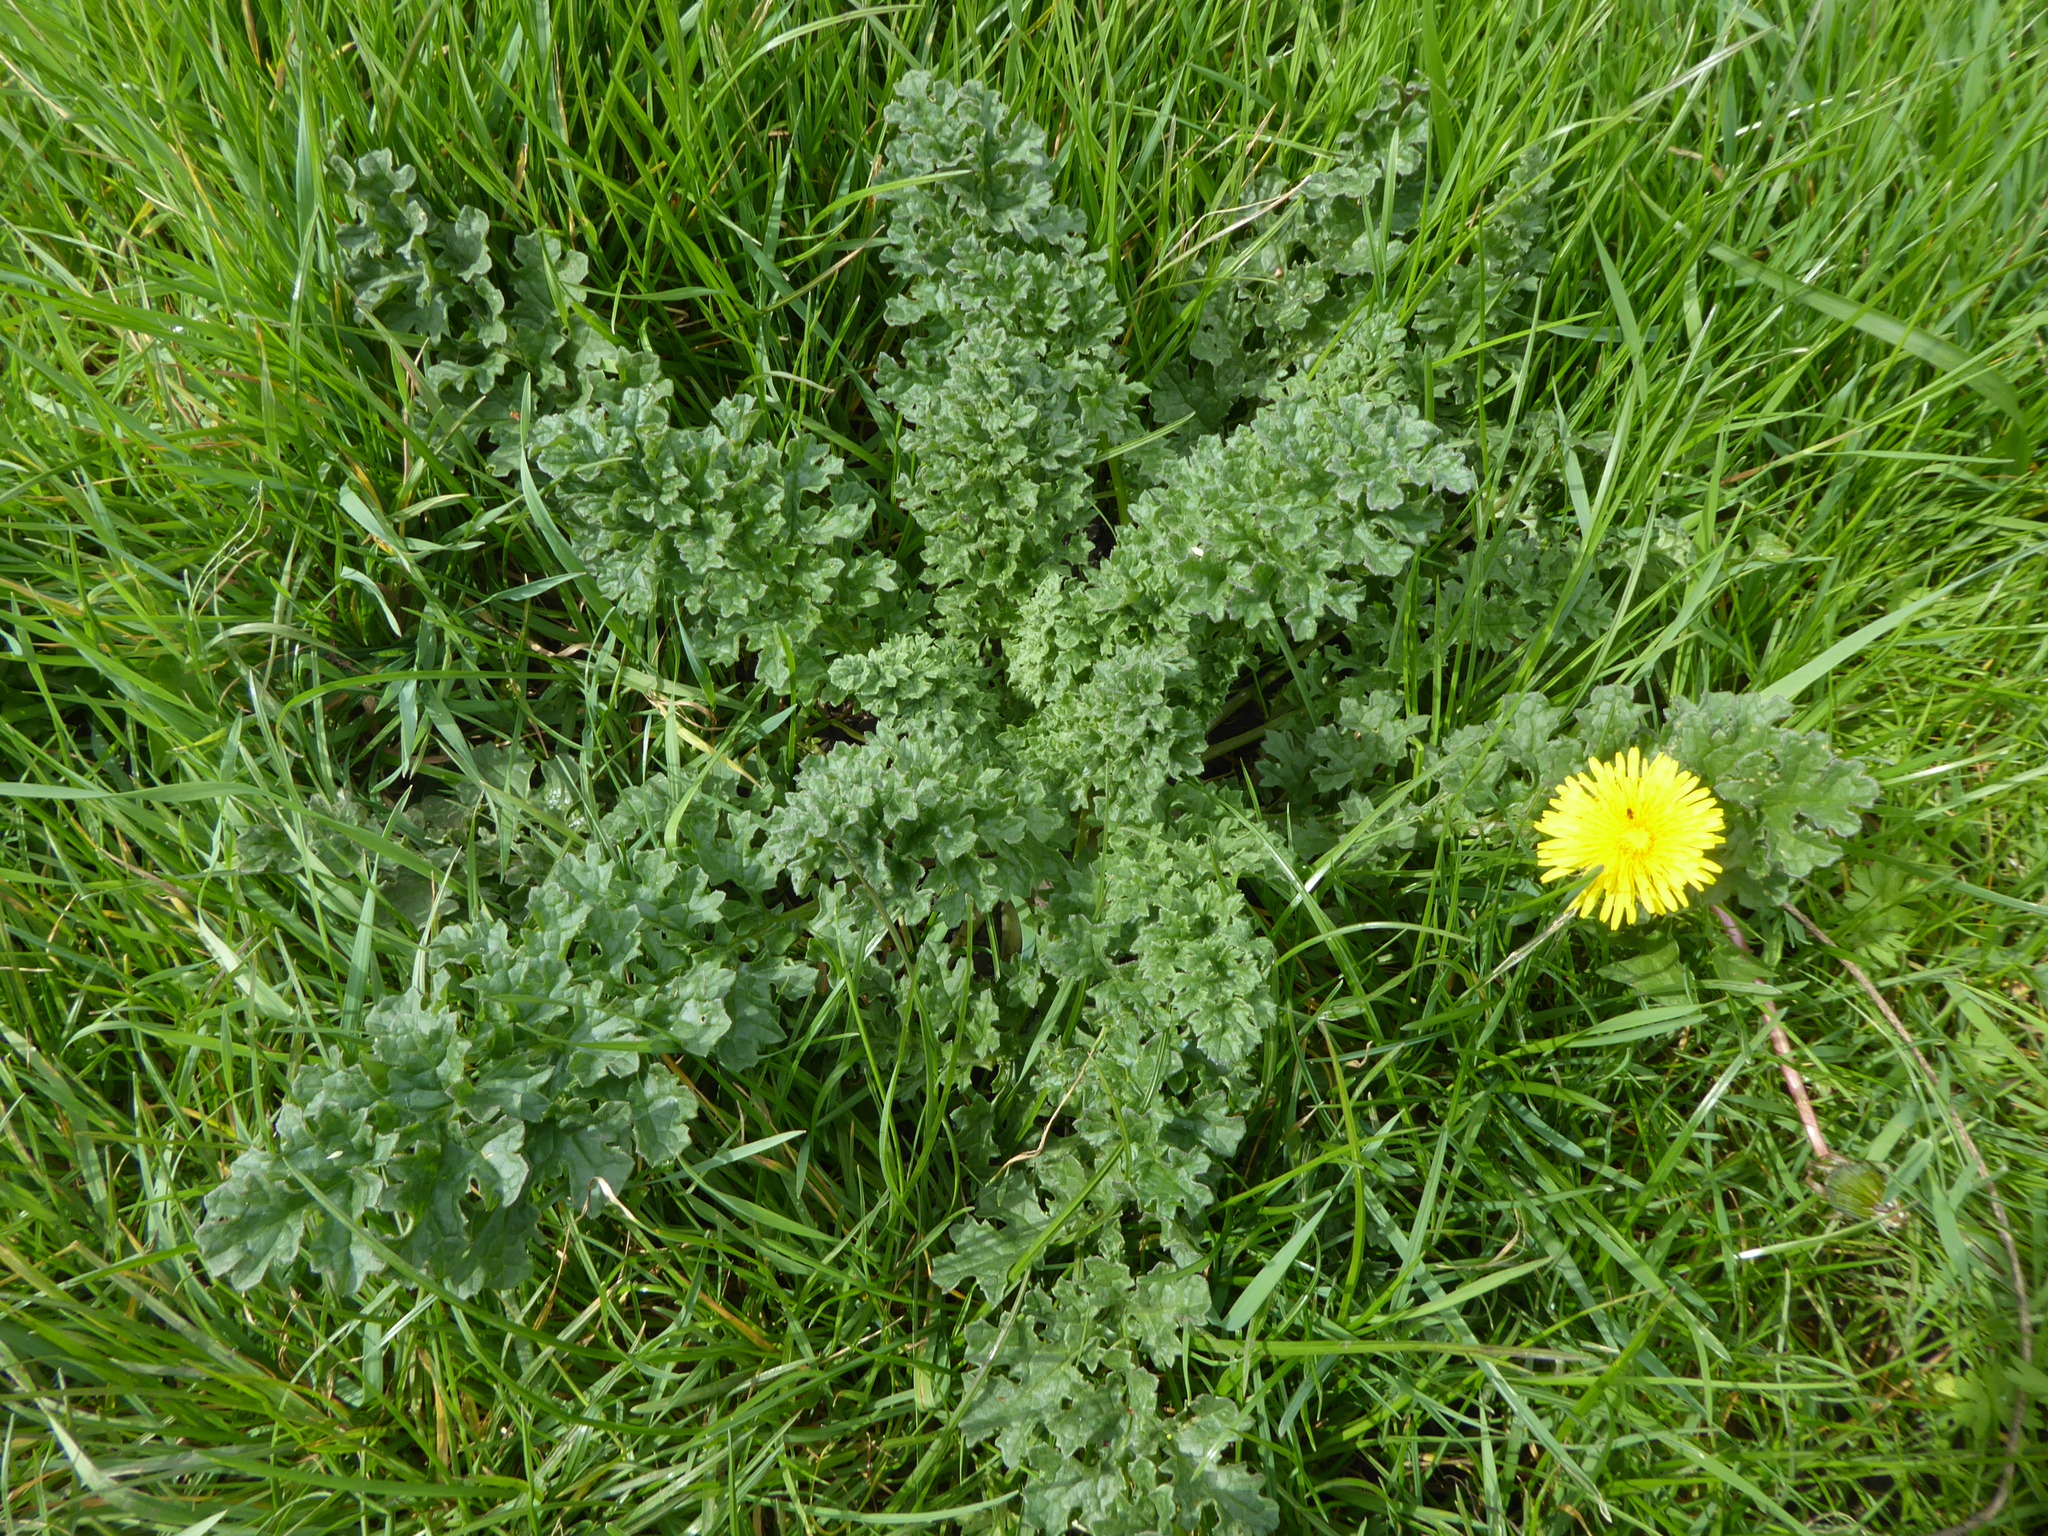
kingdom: Plantae
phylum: Tracheophyta
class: Magnoliopsida
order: Asterales
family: Asteraceae
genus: Jacobaea
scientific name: Jacobaea vulgaris
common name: Stinking willie
